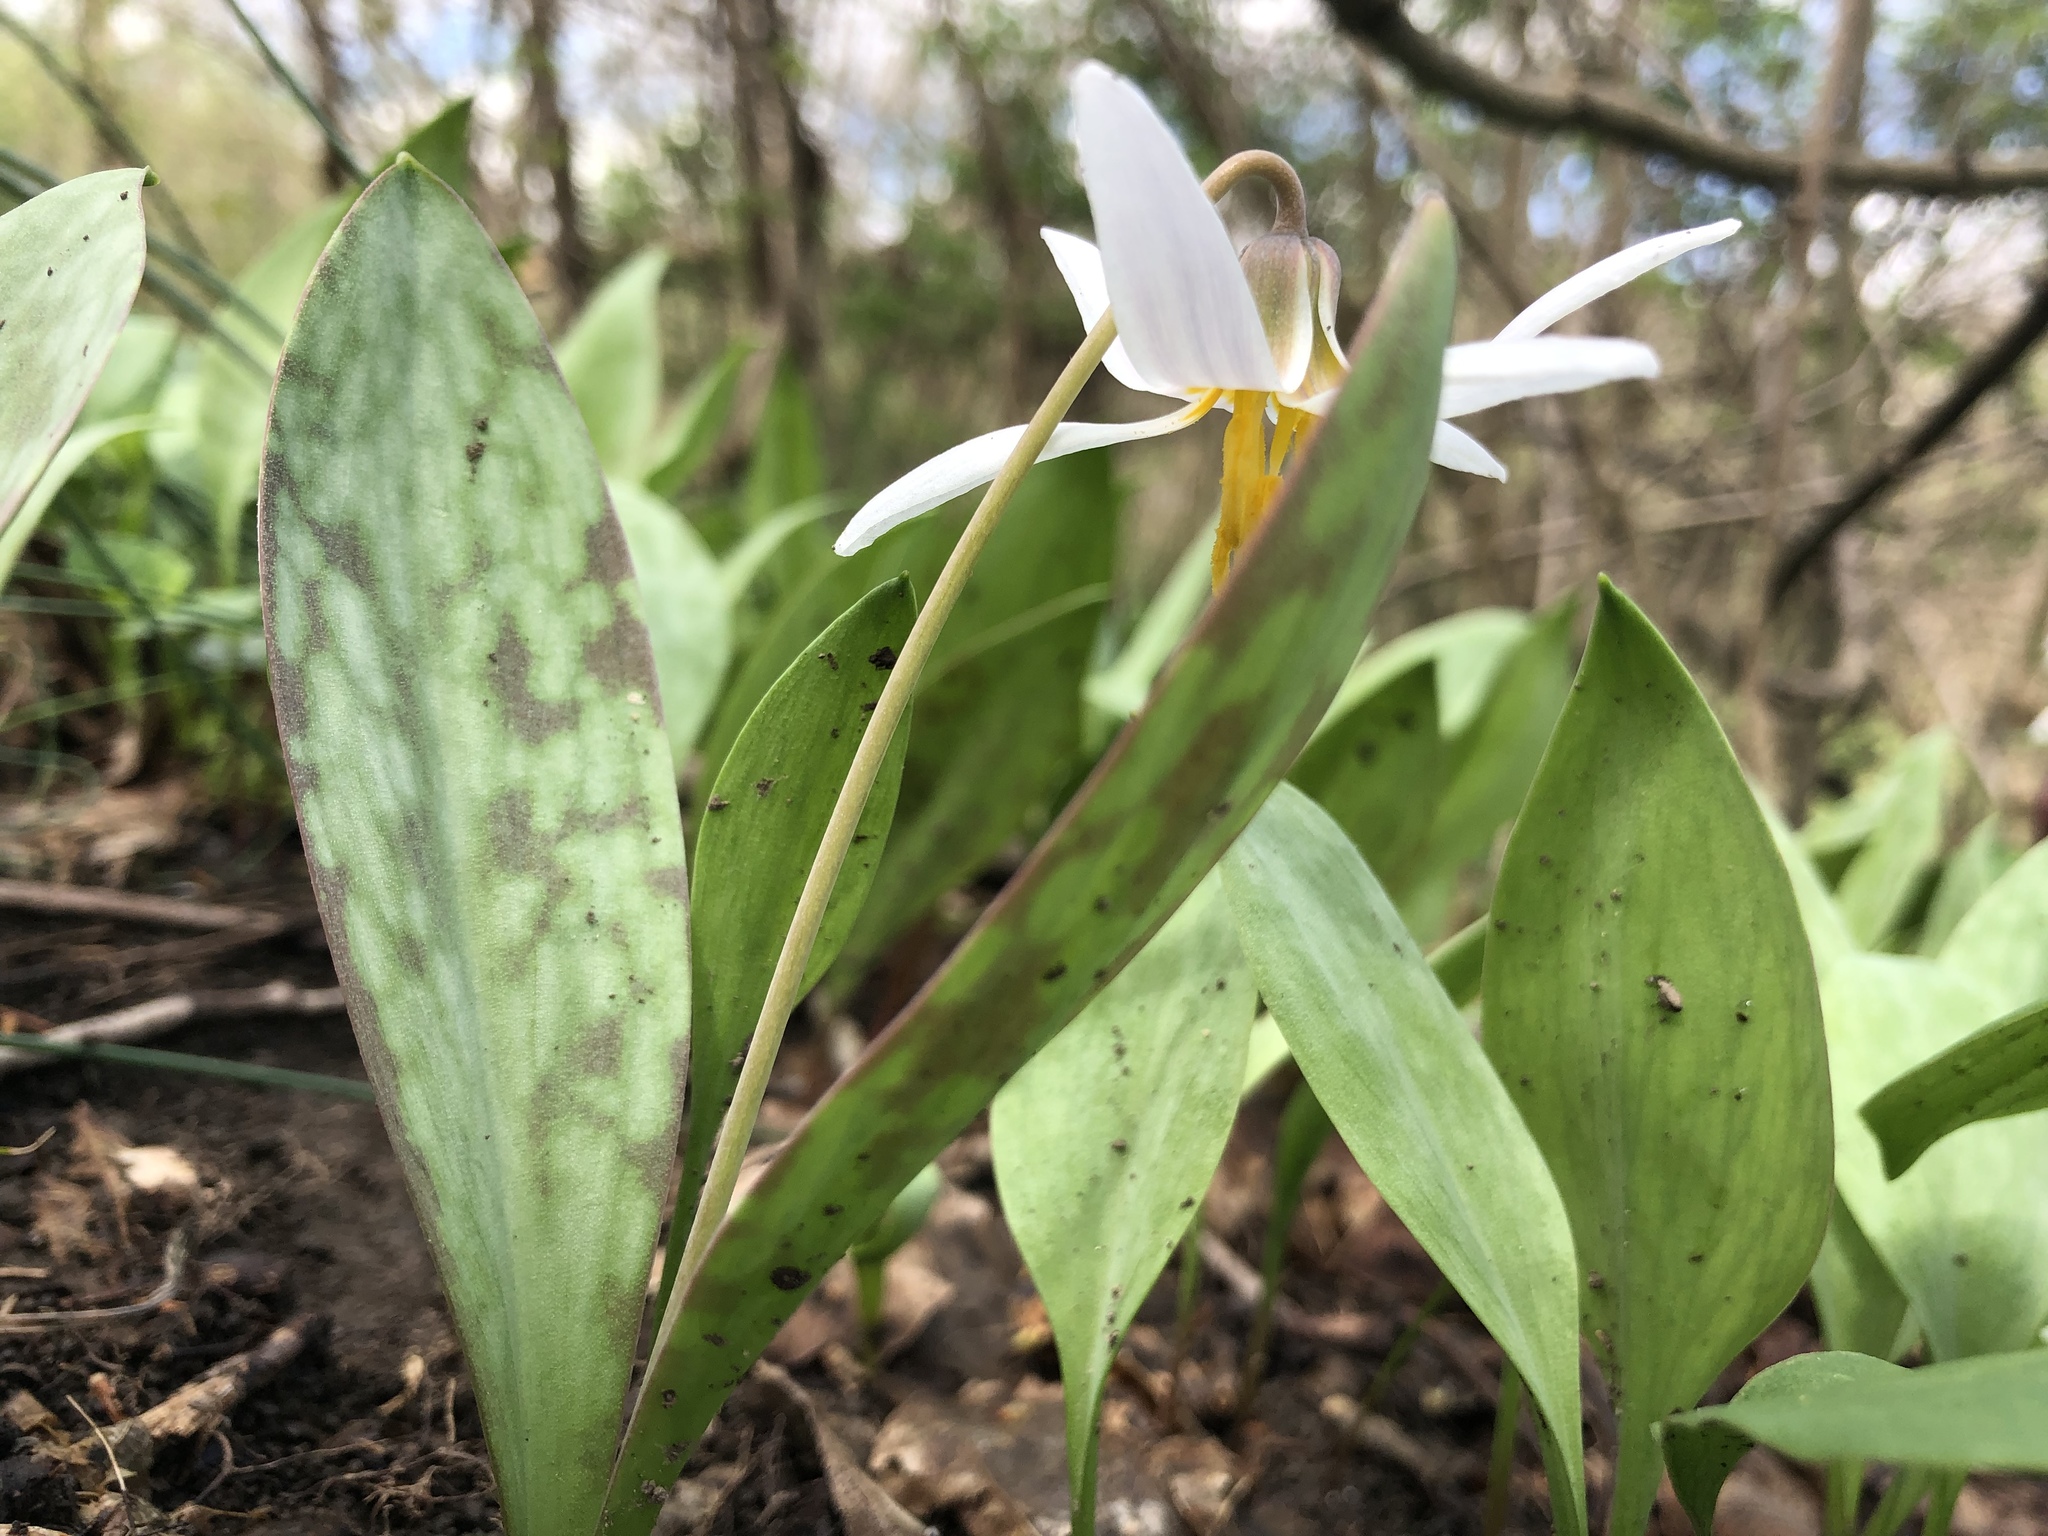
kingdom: Plantae
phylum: Tracheophyta
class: Liliopsida
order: Liliales
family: Liliaceae
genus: Erythronium
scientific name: Erythronium albidum
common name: White trout-lily
